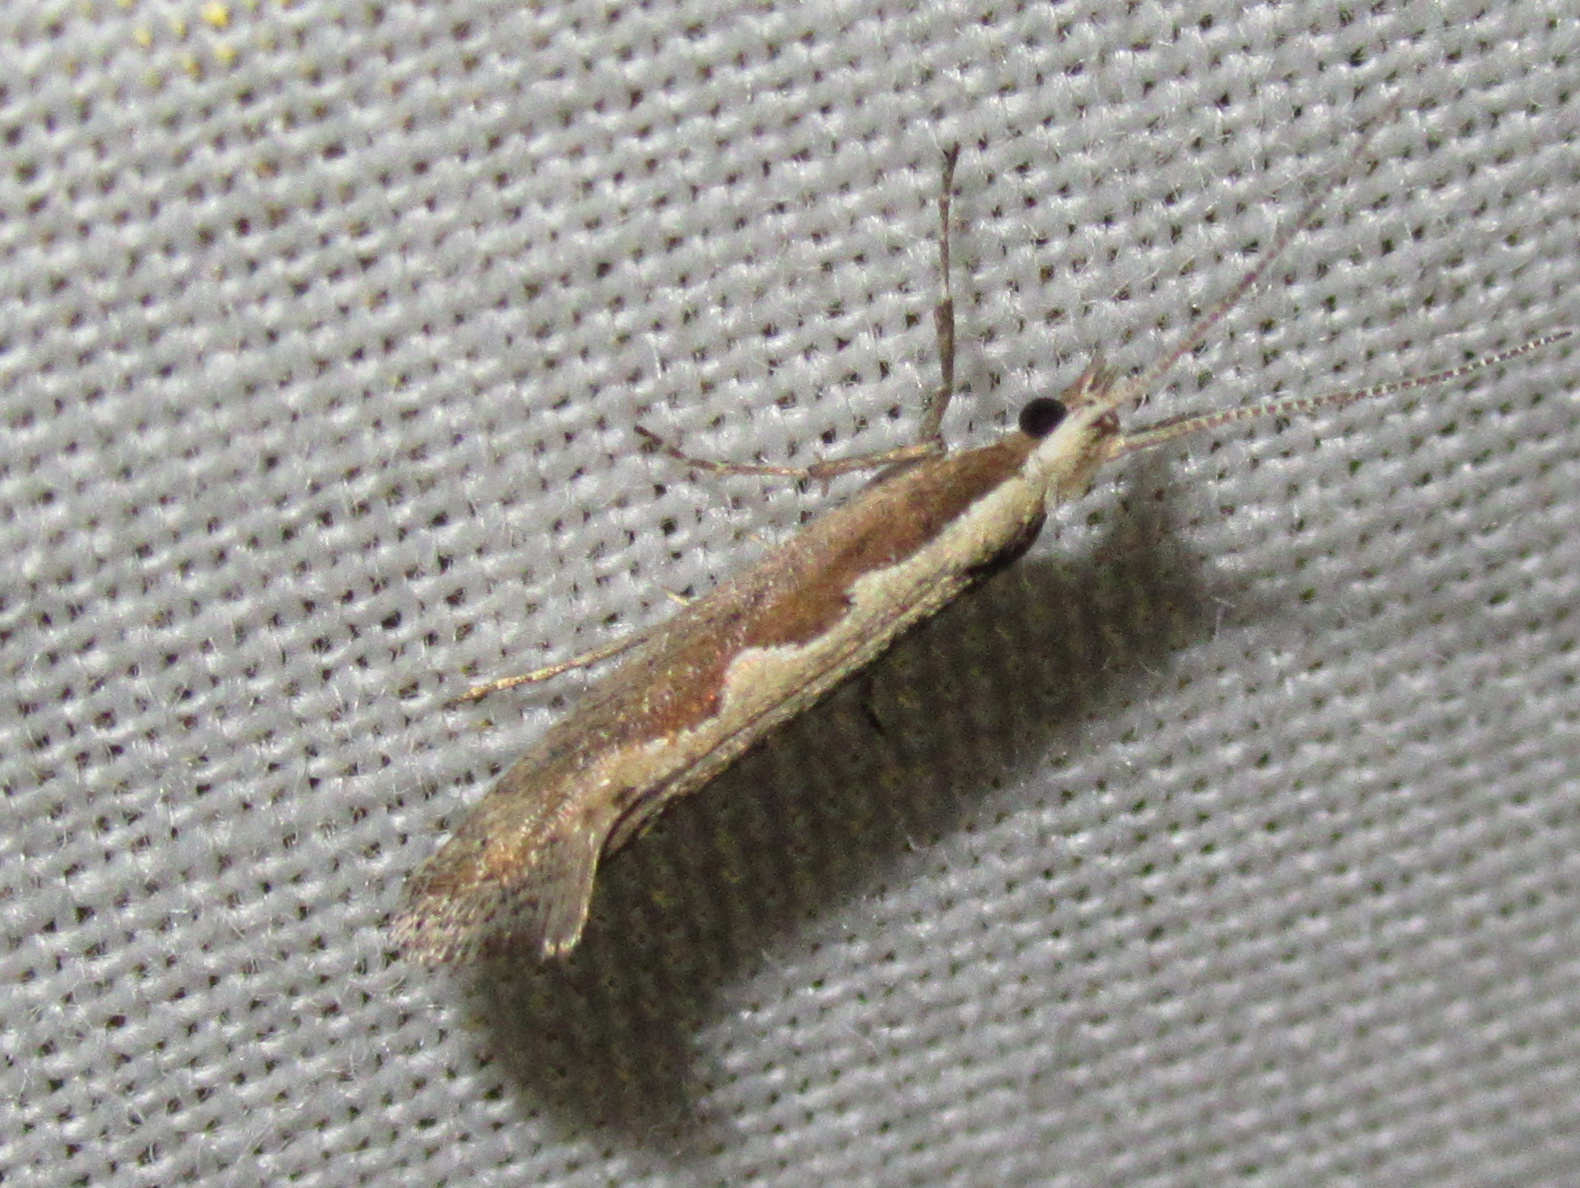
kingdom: Animalia
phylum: Arthropoda
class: Insecta
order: Lepidoptera
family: Plutellidae
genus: Plutella
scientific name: Plutella xylostella
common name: Diamond-back moth
